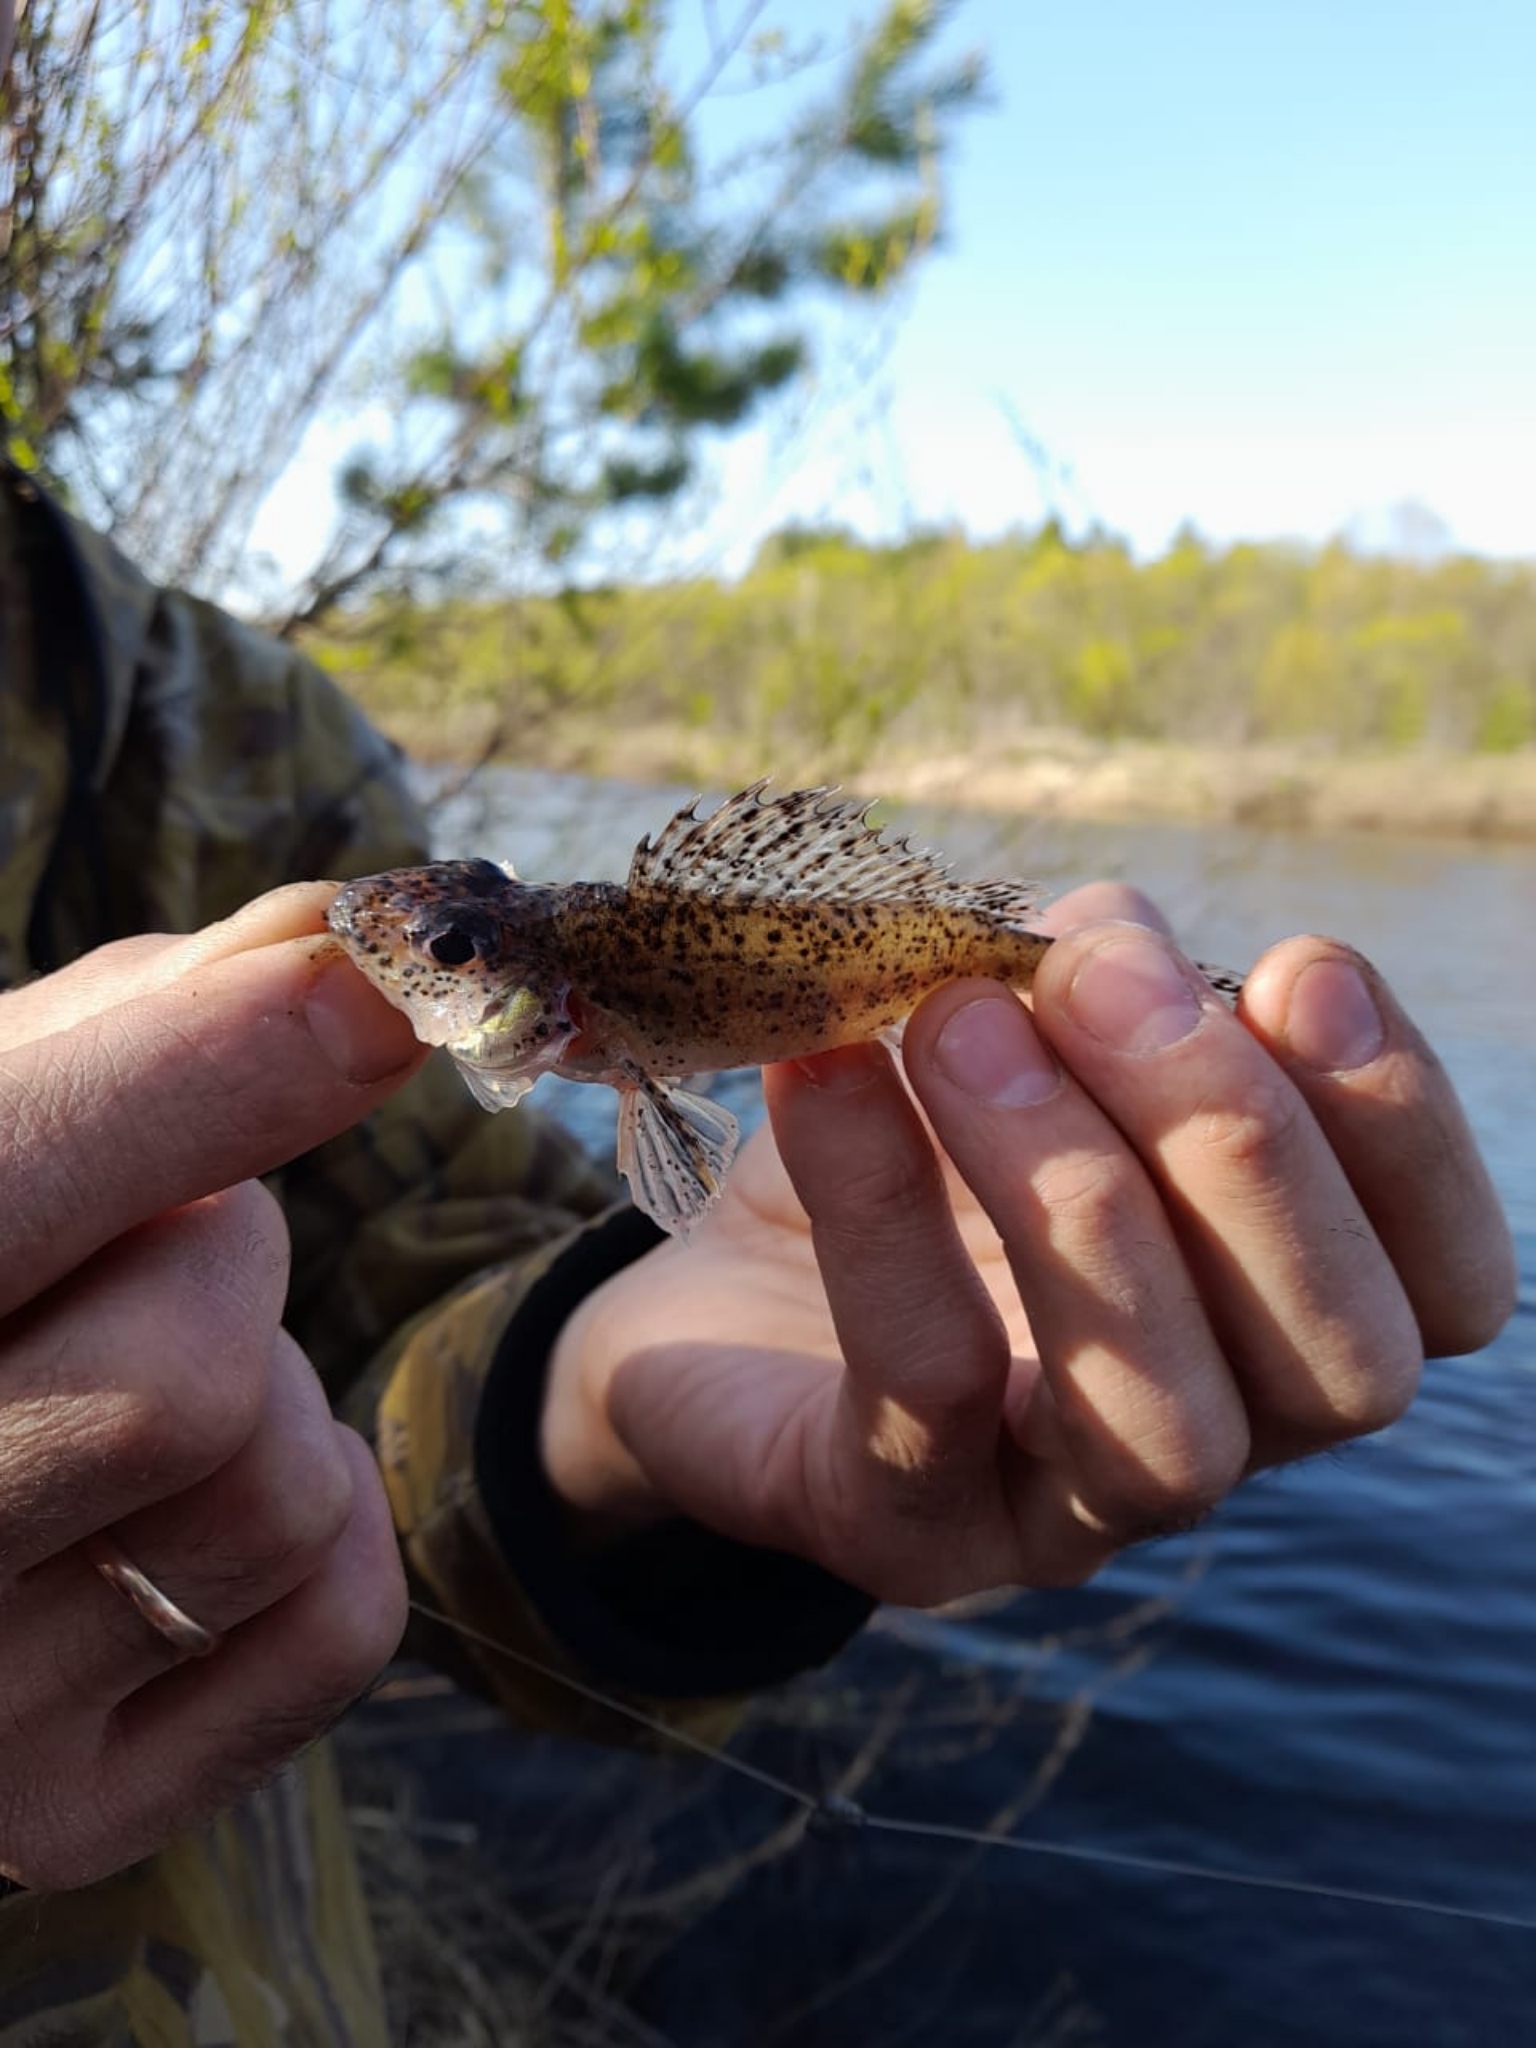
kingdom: Animalia
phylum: Chordata
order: Perciformes
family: Percidae
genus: Gymnocephalus
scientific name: Gymnocephalus cernua
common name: Ruffe
